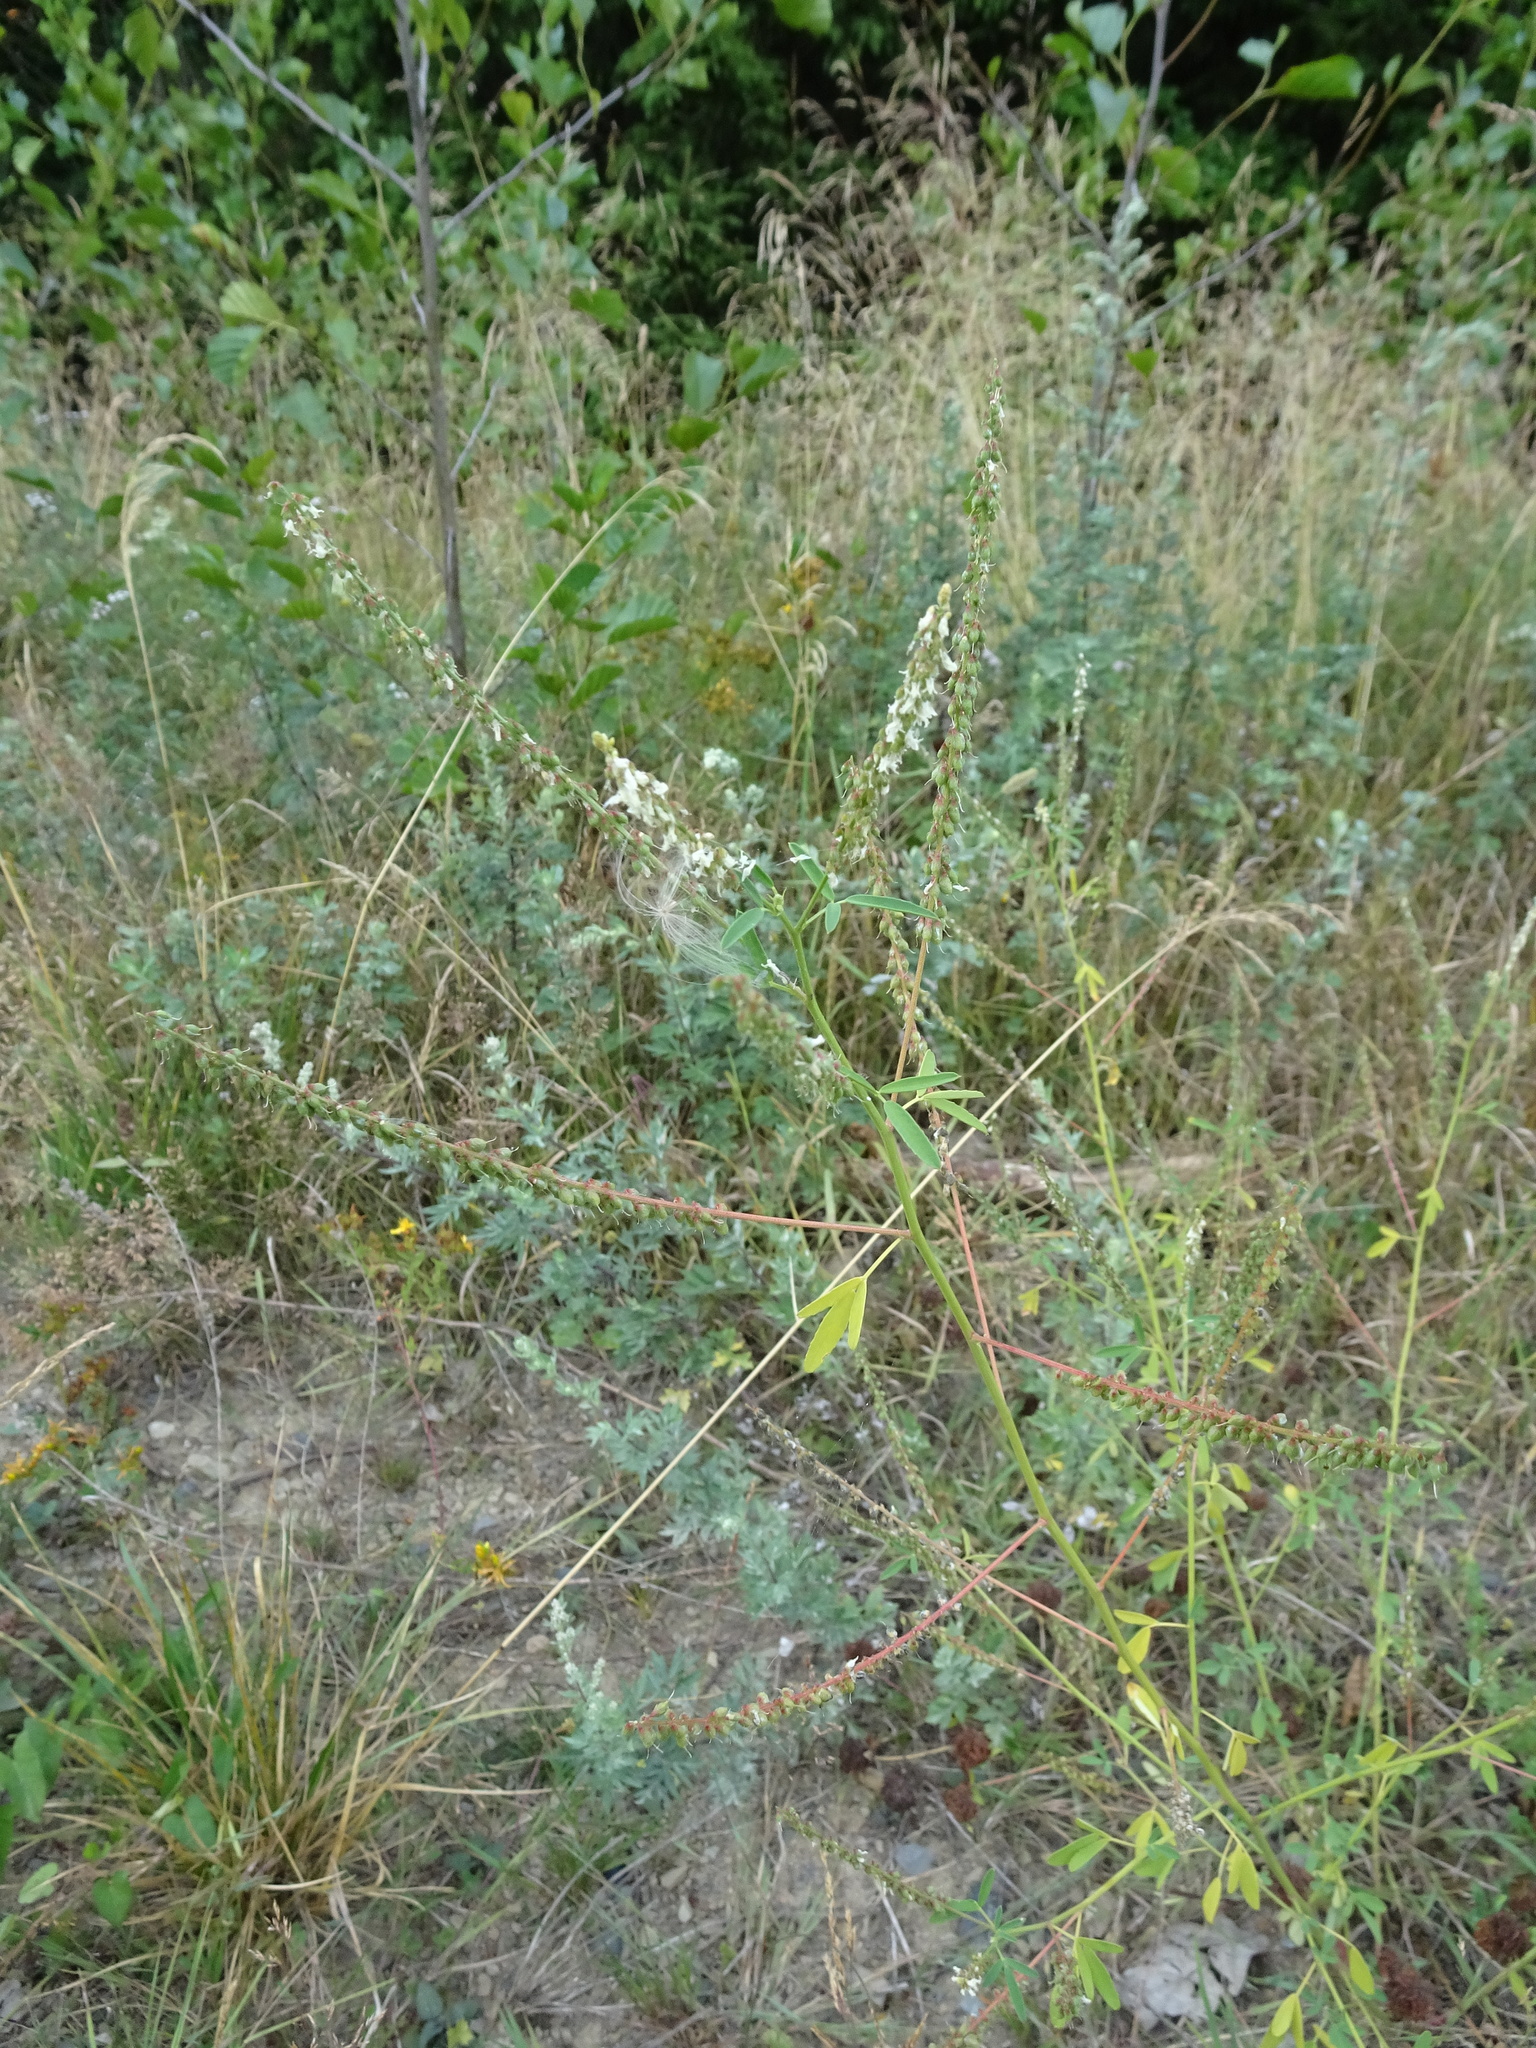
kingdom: Plantae
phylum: Tracheophyta
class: Magnoliopsida
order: Fabales
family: Fabaceae
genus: Melilotus
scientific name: Melilotus albus
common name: White melilot
